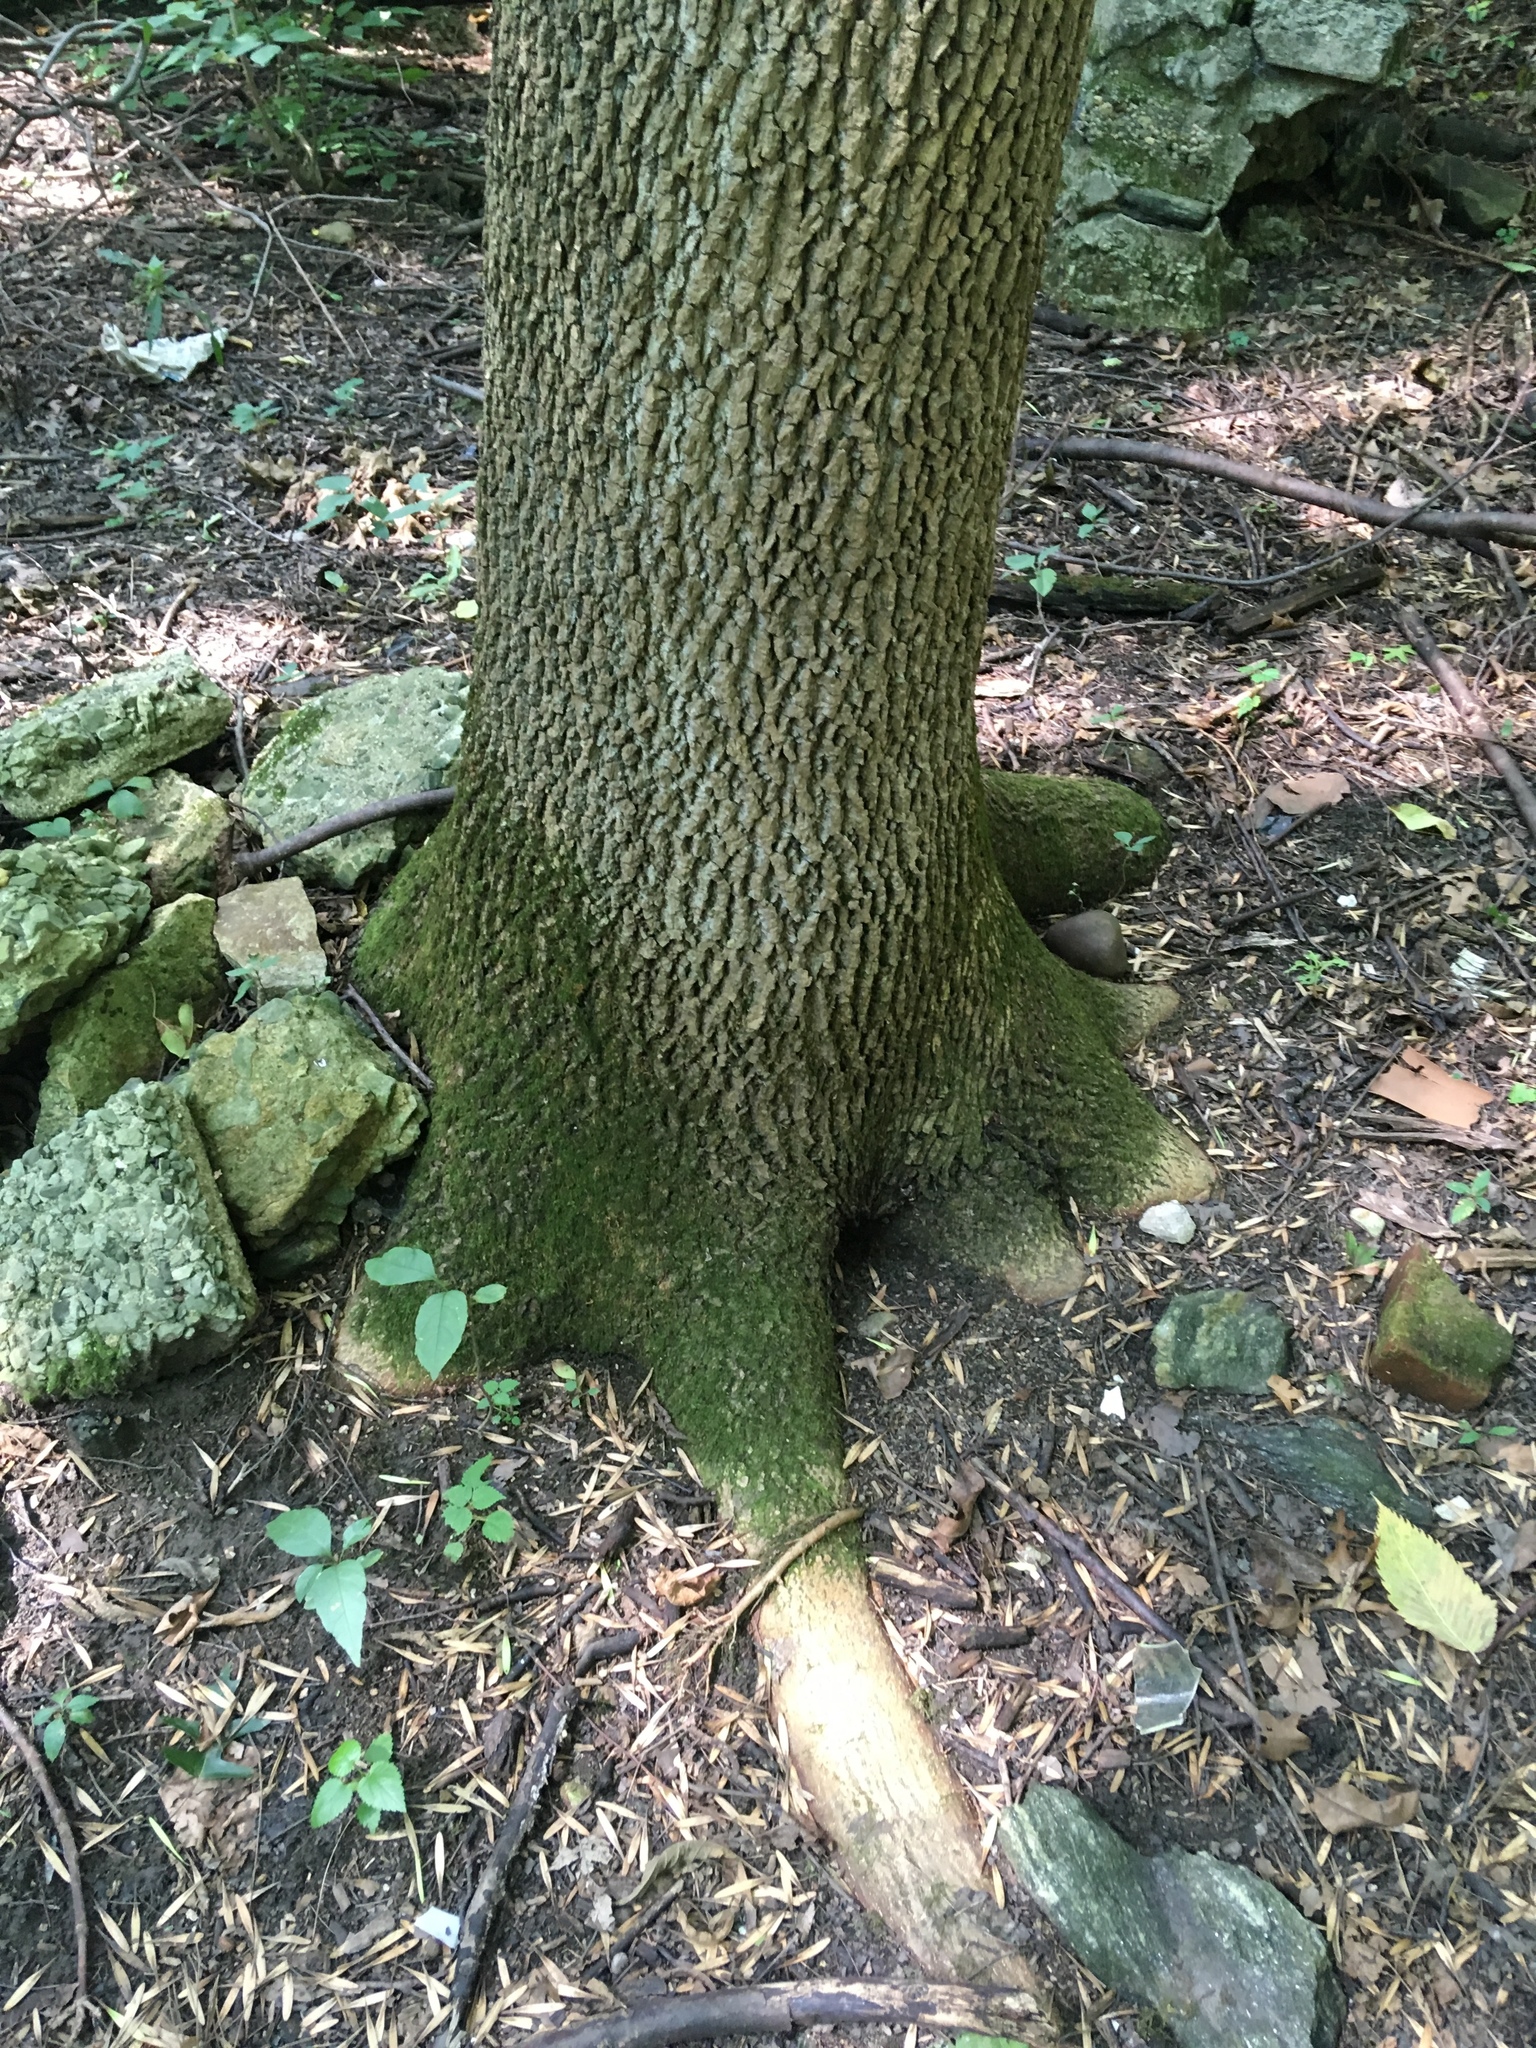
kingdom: Plantae
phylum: Tracheophyta
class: Magnoliopsida
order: Lamiales
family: Oleaceae
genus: Fraxinus
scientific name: Fraxinus pennsylvanica
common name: Green ash
